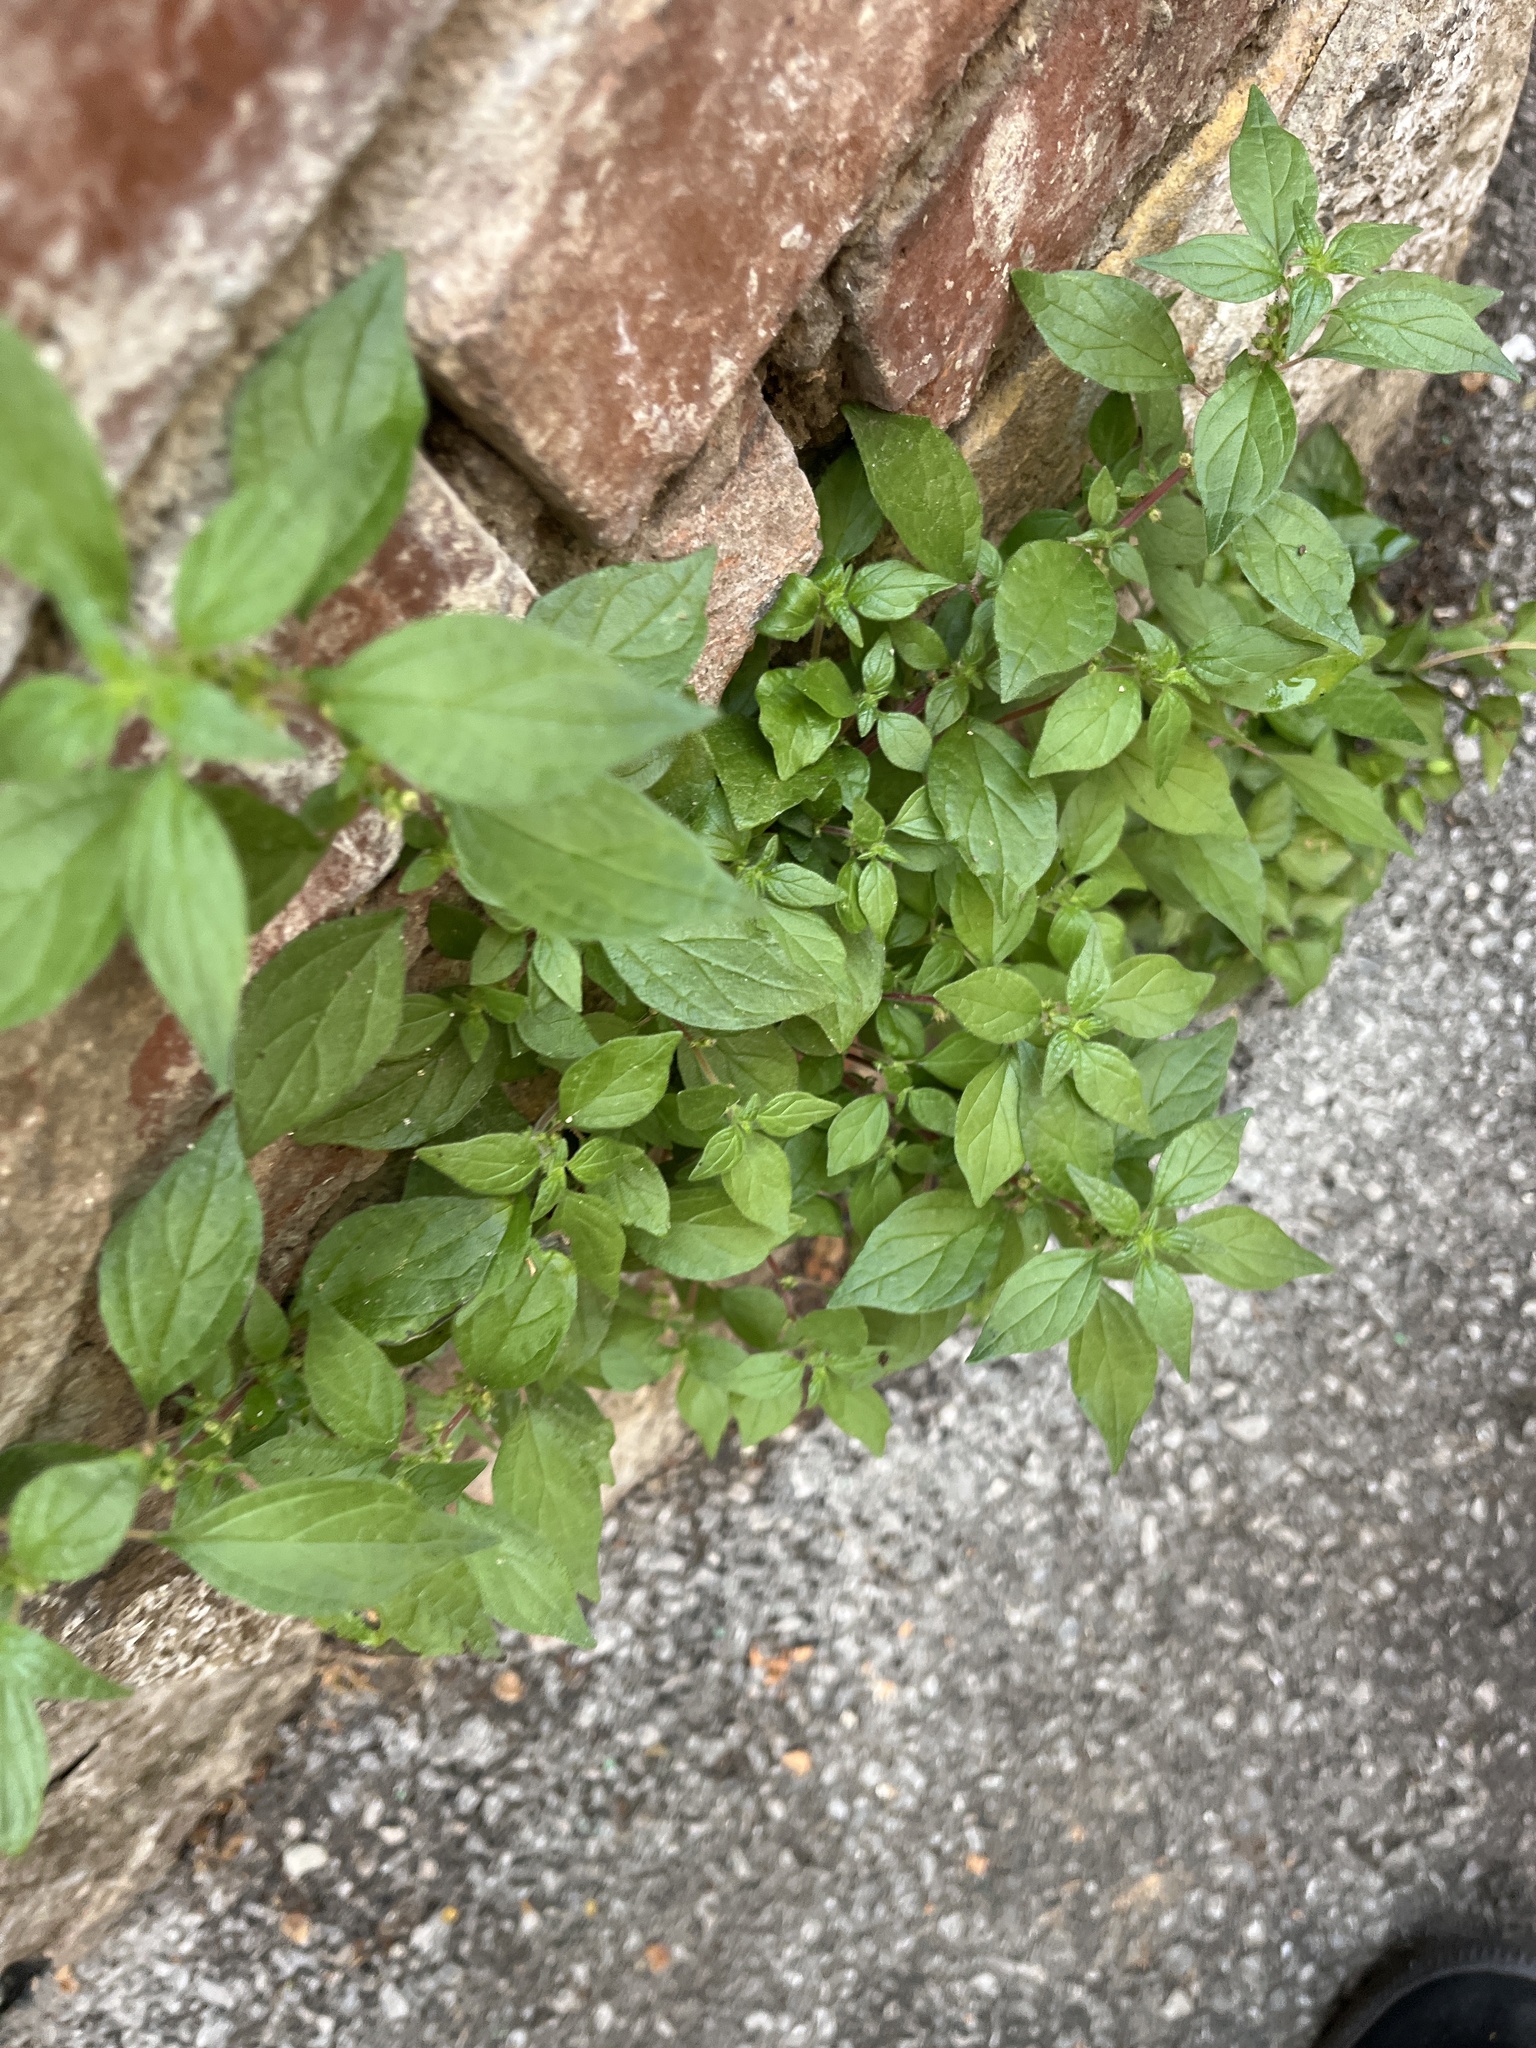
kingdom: Plantae
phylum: Tracheophyta
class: Magnoliopsida
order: Rosales
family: Urticaceae
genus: Parietaria
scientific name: Parietaria judaica
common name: Pellitory-of-the-wall
